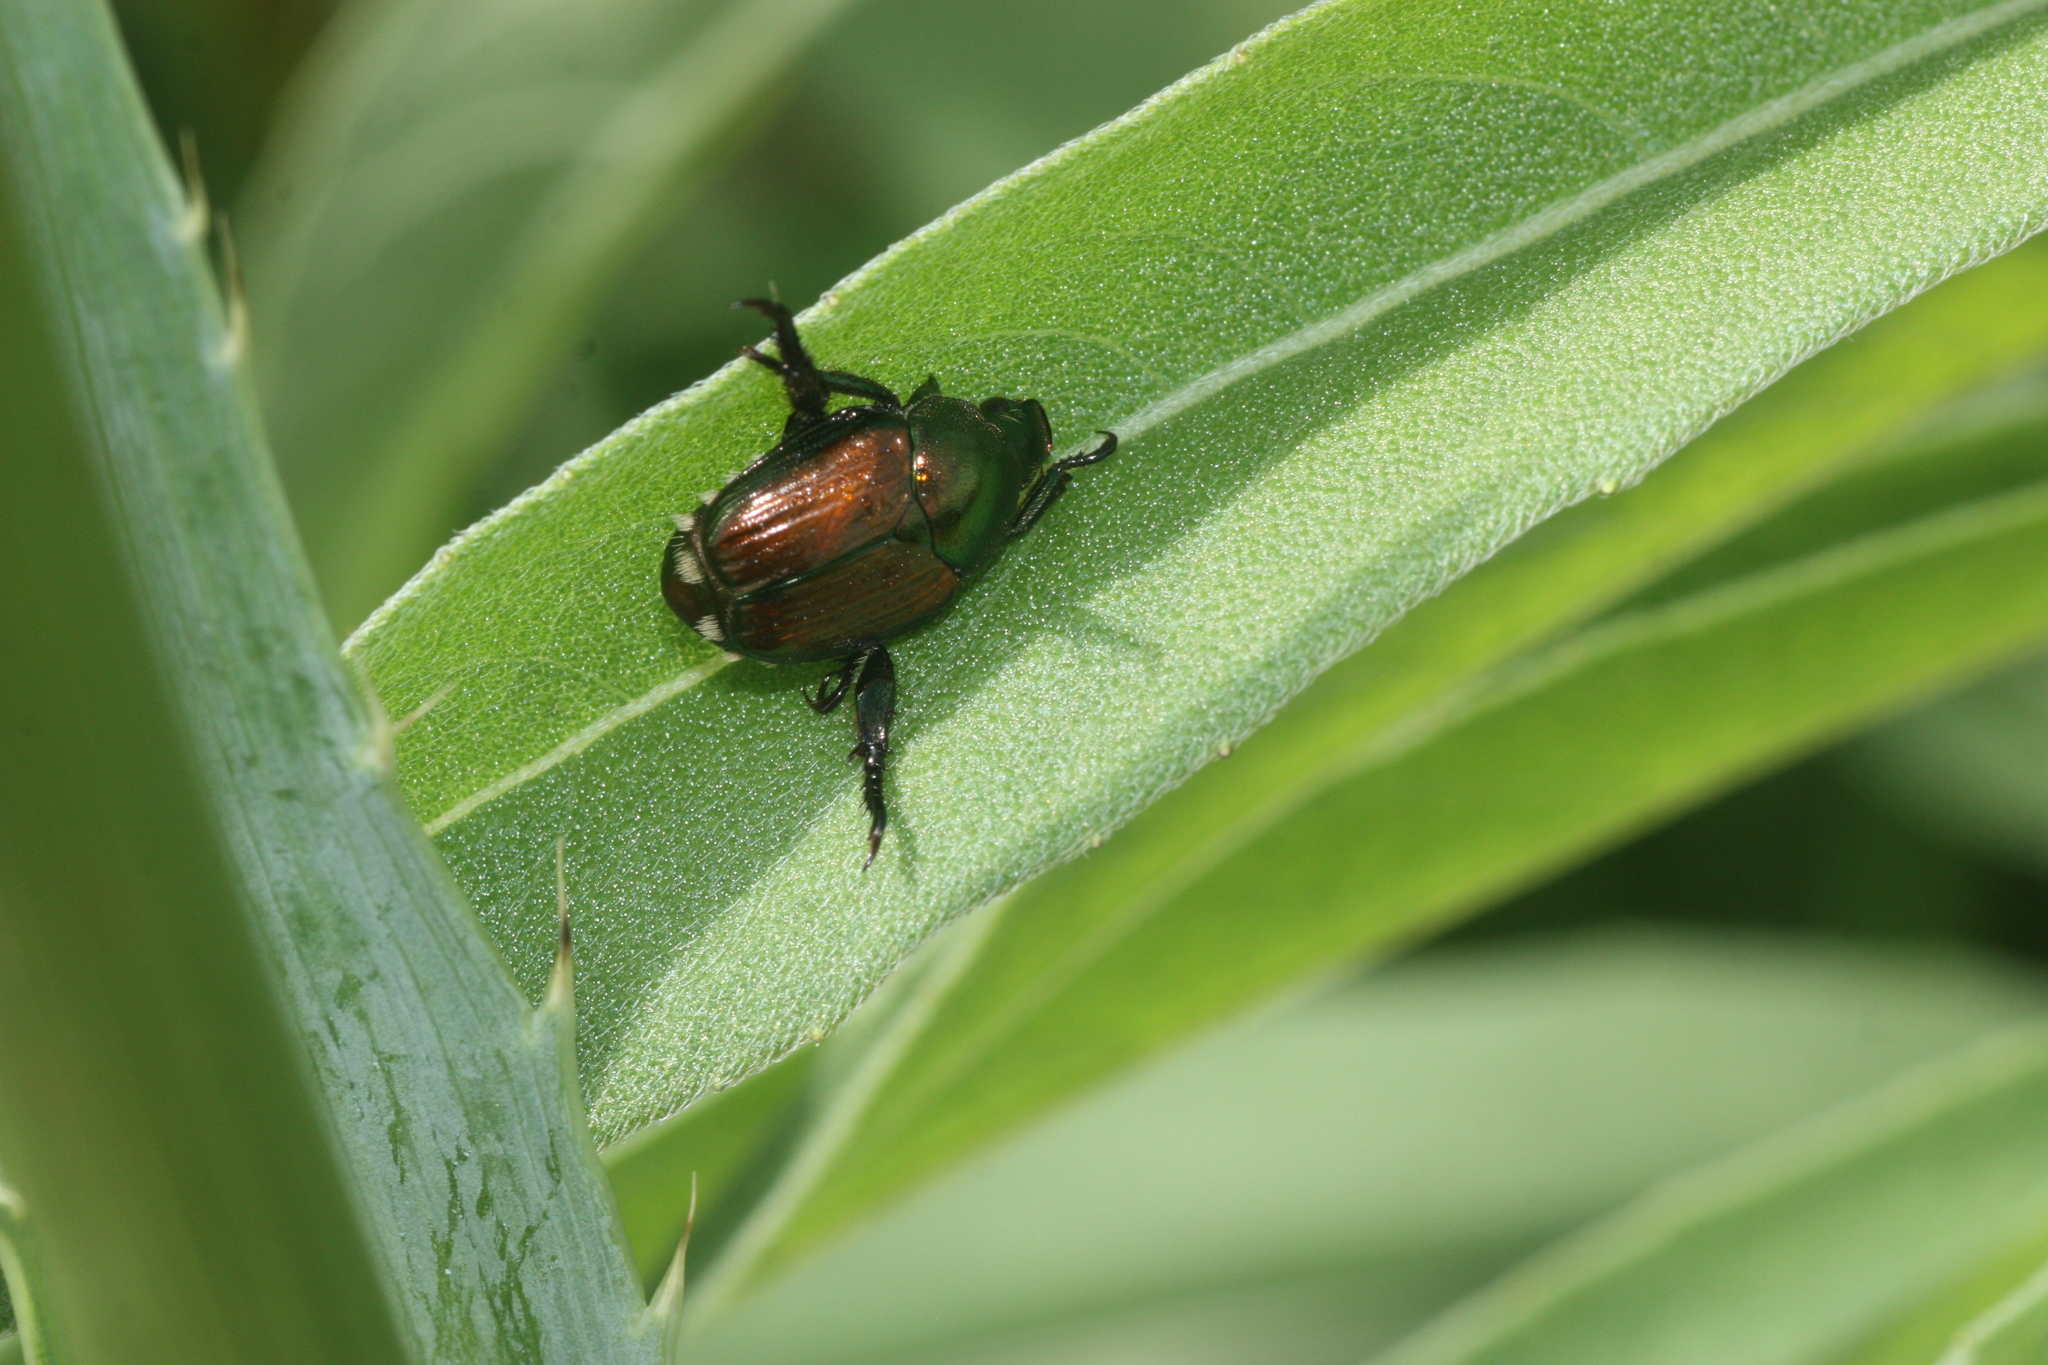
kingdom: Animalia
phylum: Arthropoda
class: Insecta
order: Coleoptera
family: Scarabaeidae
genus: Popillia
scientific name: Popillia japonica
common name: Japanese beetle
